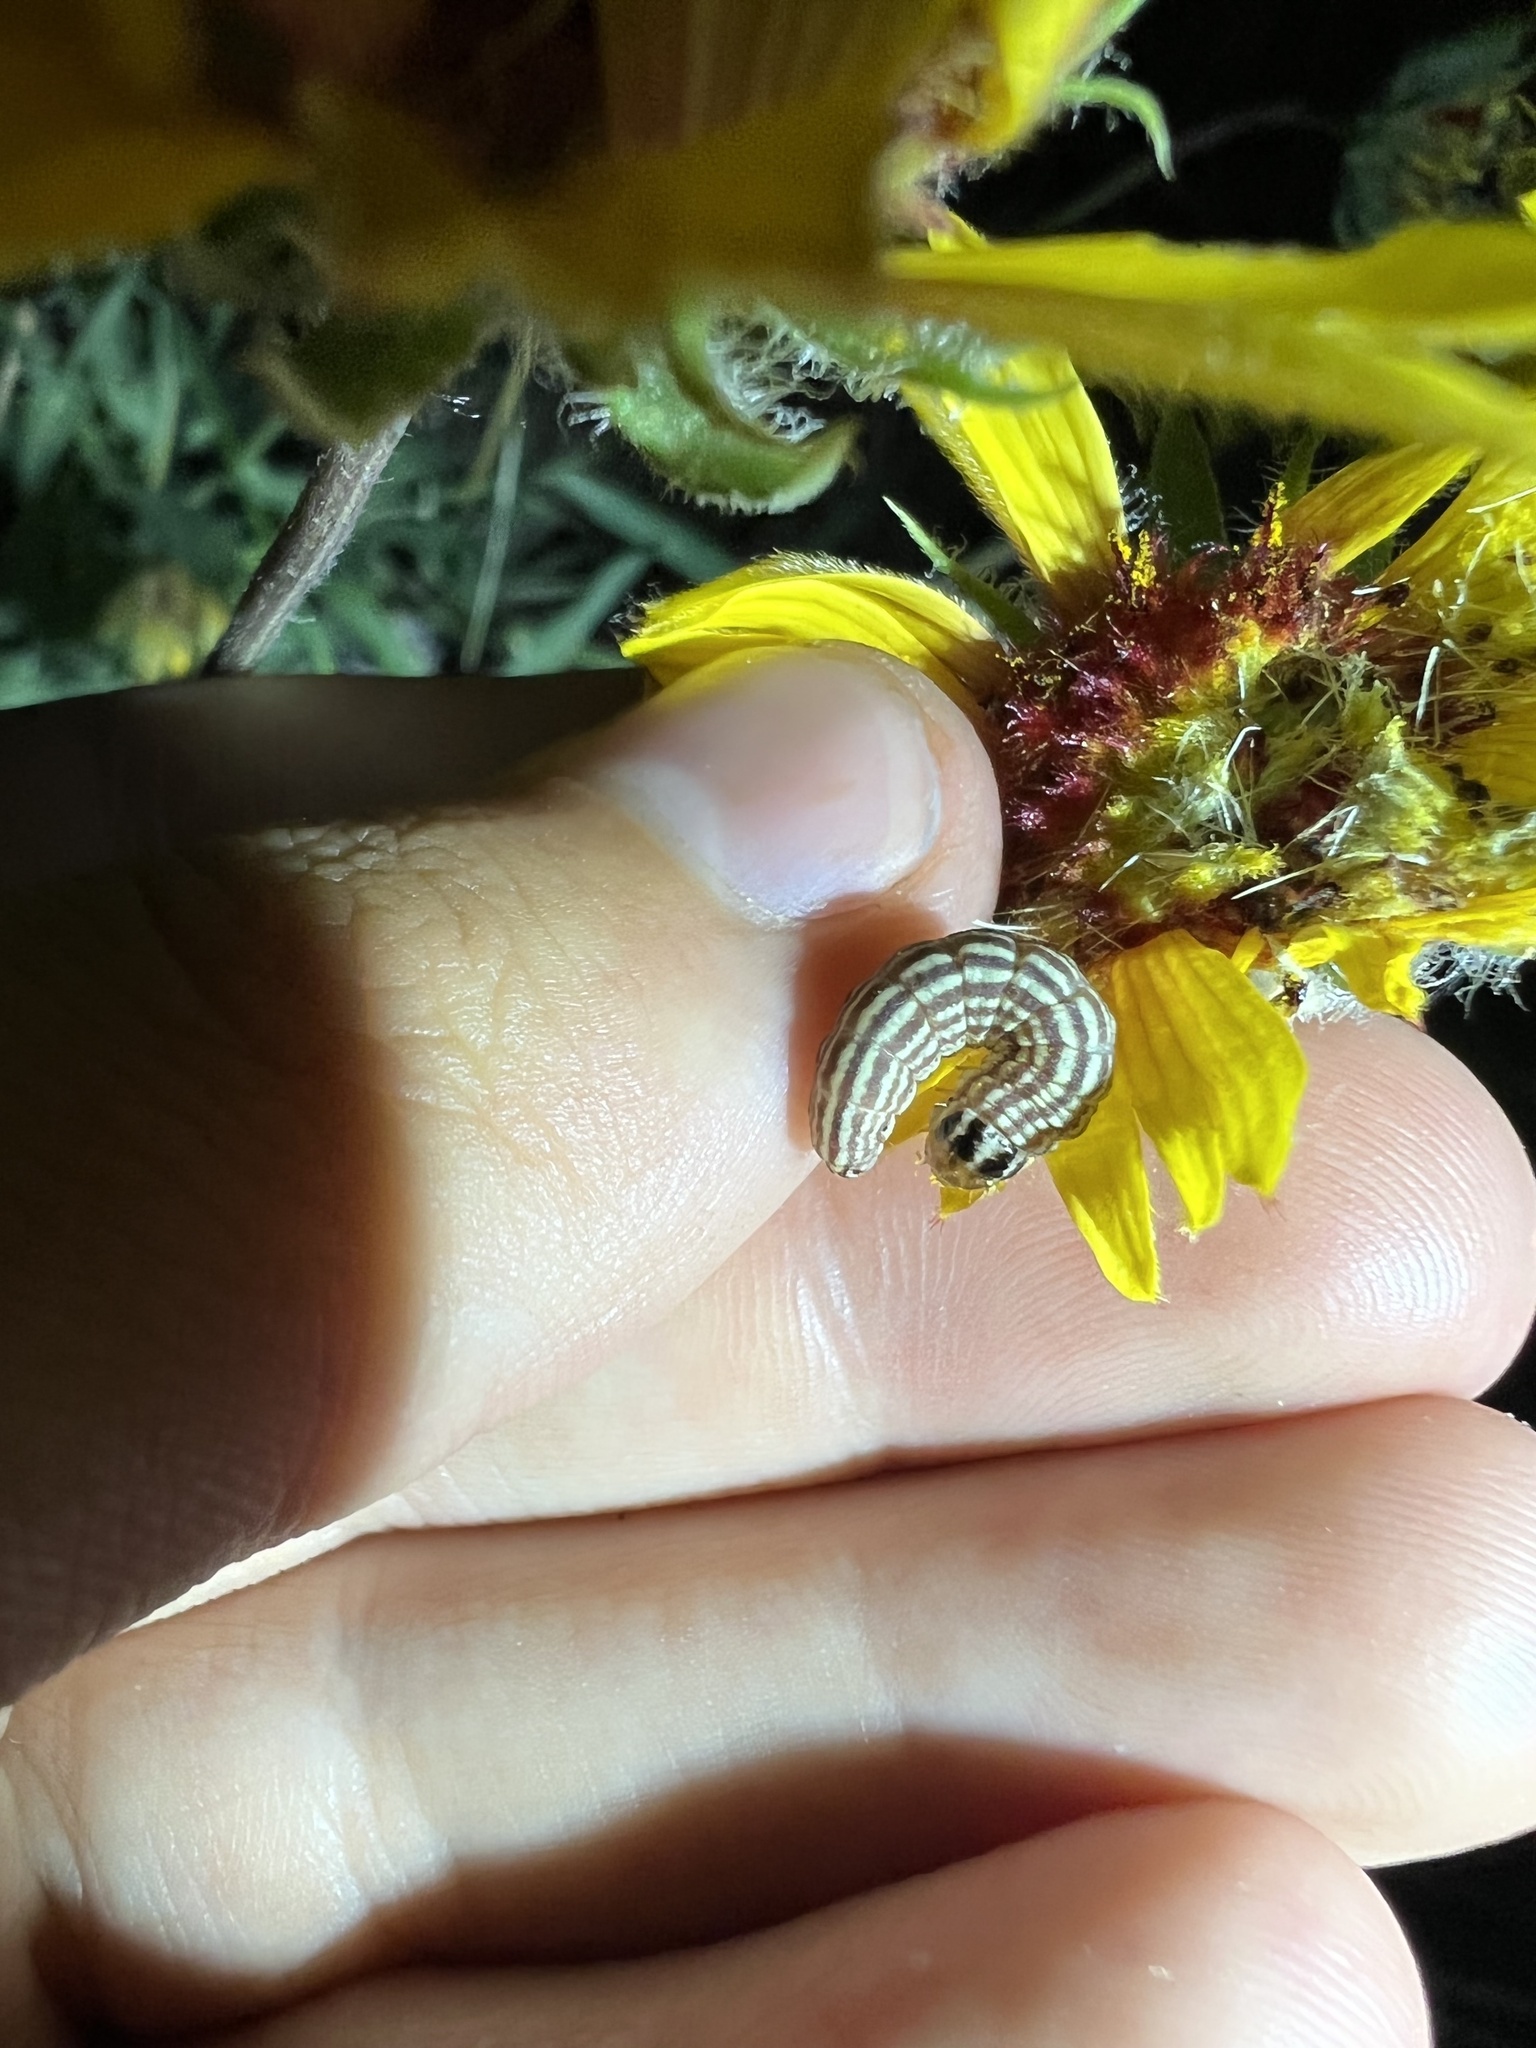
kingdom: Animalia
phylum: Arthropoda
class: Insecta
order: Lepidoptera
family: Noctuidae
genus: Schinia
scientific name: Schinia volupia
